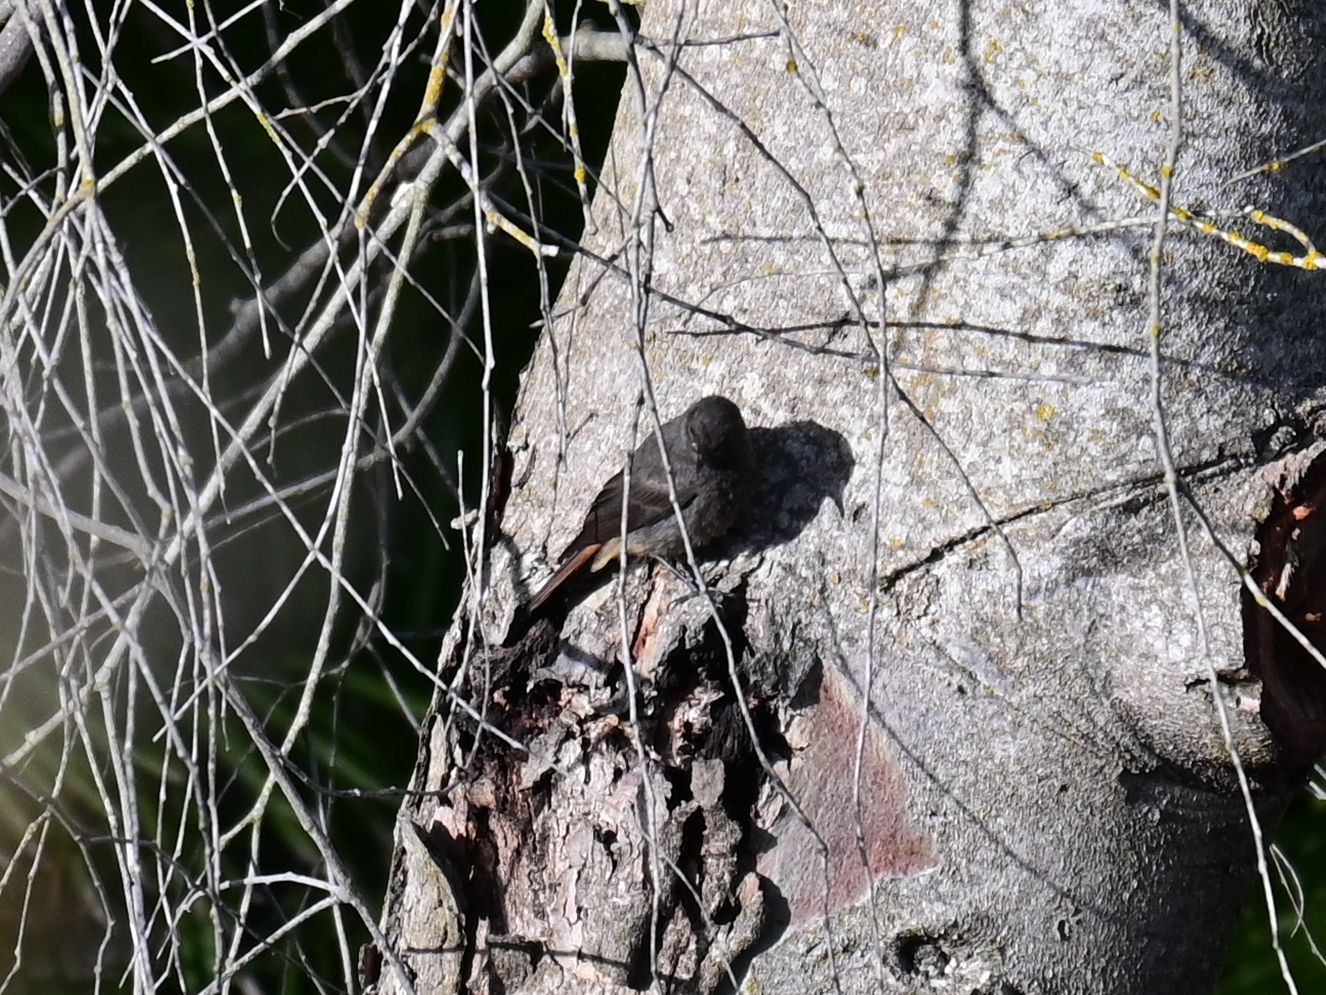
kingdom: Animalia
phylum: Chordata
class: Aves
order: Passeriformes
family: Muscicapidae
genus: Phoenicurus
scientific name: Phoenicurus ochruros
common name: Black redstart
